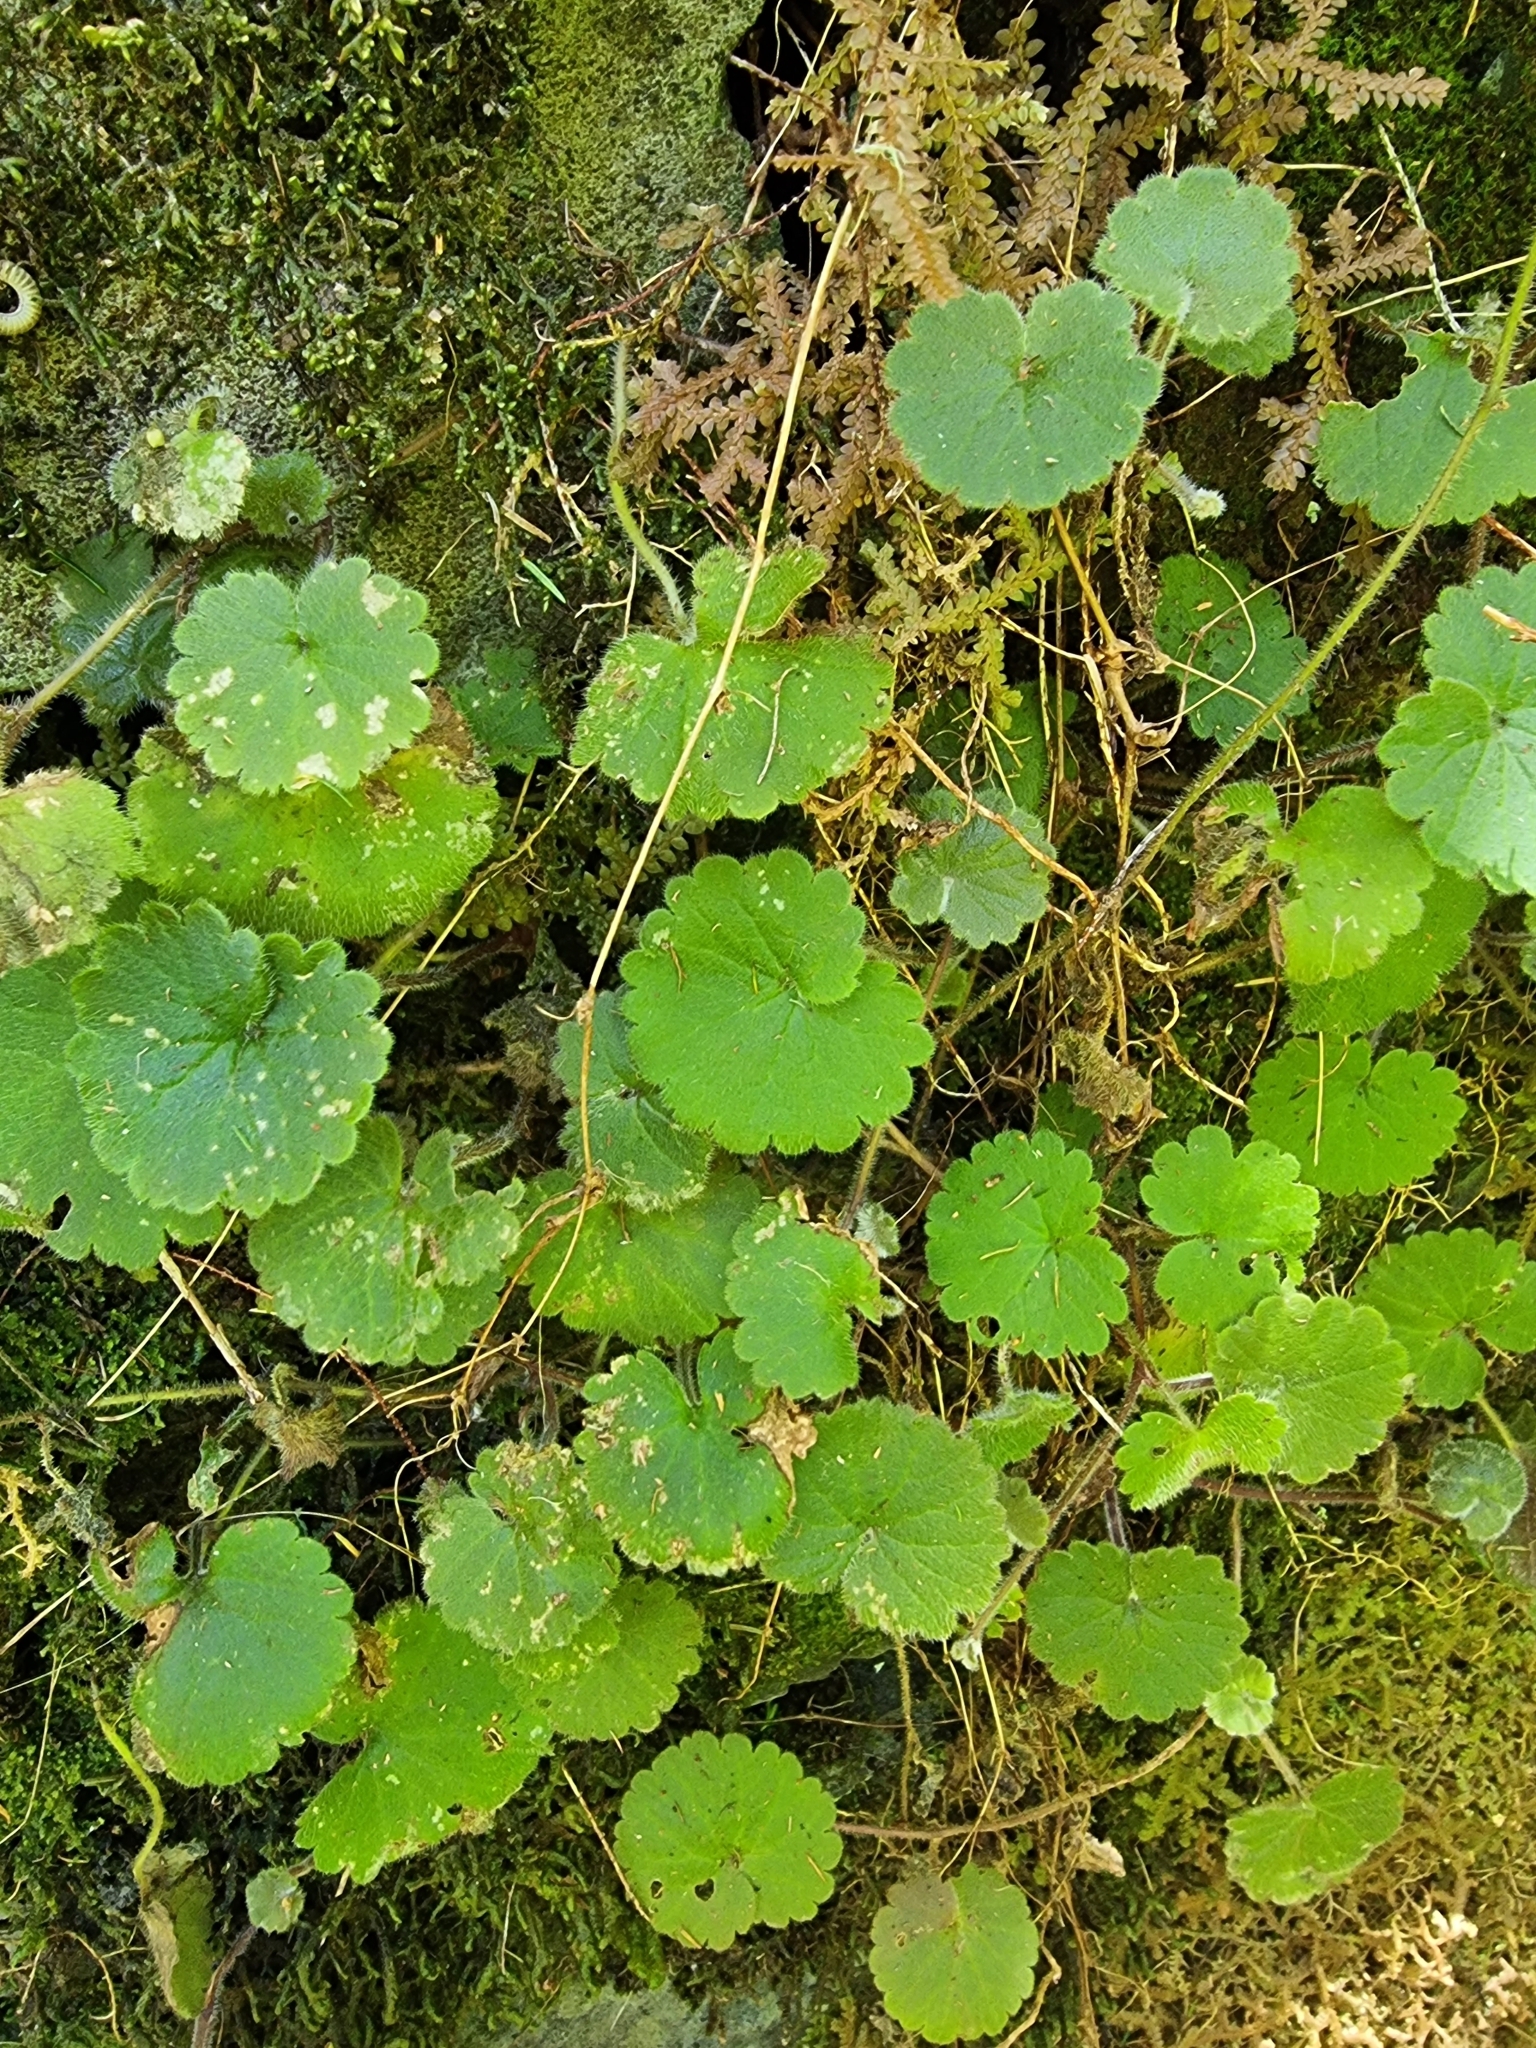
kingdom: Plantae
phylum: Tracheophyta
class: Magnoliopsida
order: Lamiales
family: Plantaginaceae
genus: Sibthorpia
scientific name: Sibthorpia peregrina
